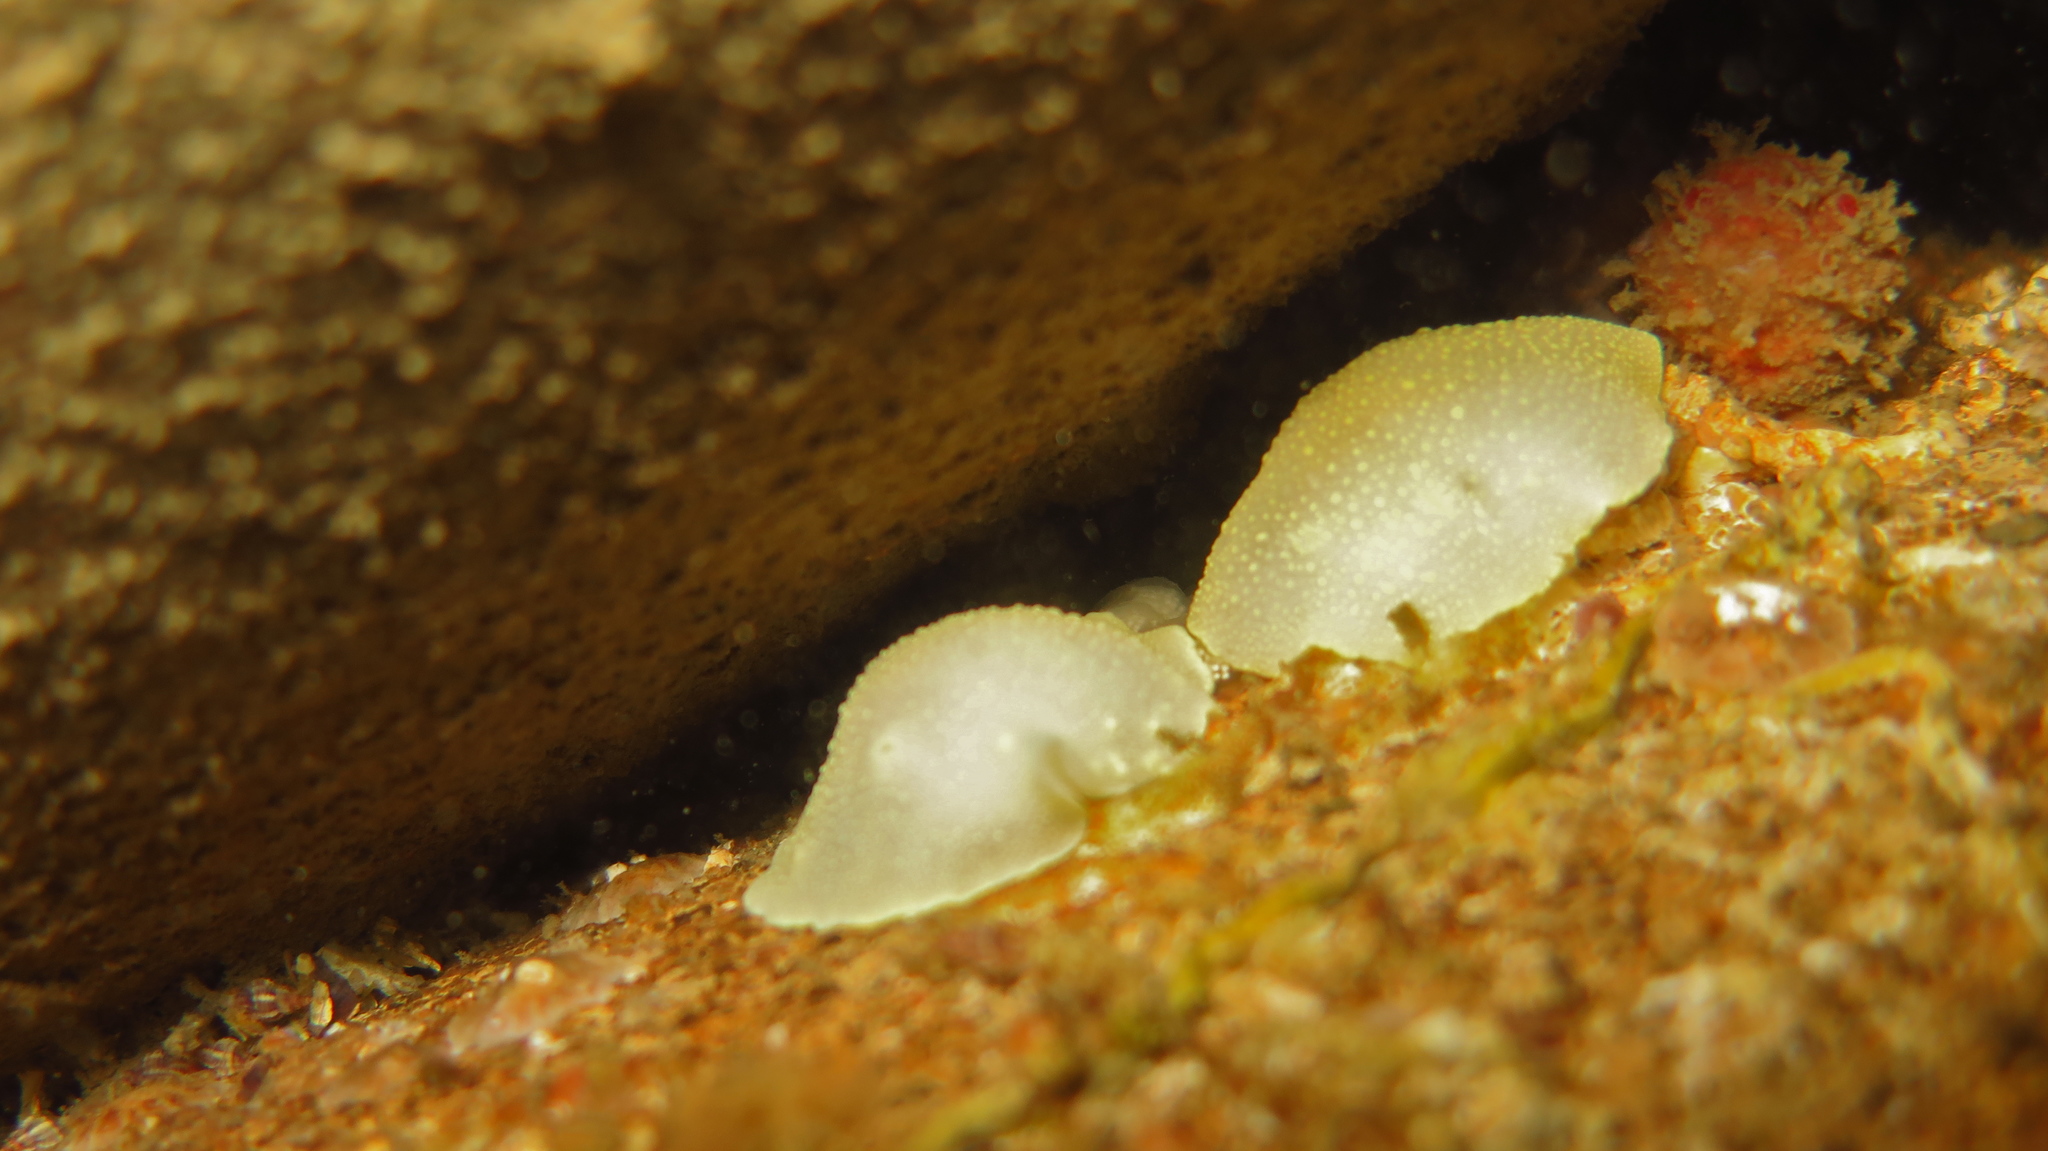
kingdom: Animalia
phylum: Mollusca
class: Gastropoda
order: Nudibranchia
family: Cadlinidae
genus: Cadlina
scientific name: Cadlina laevis
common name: White atlantic cadlina
